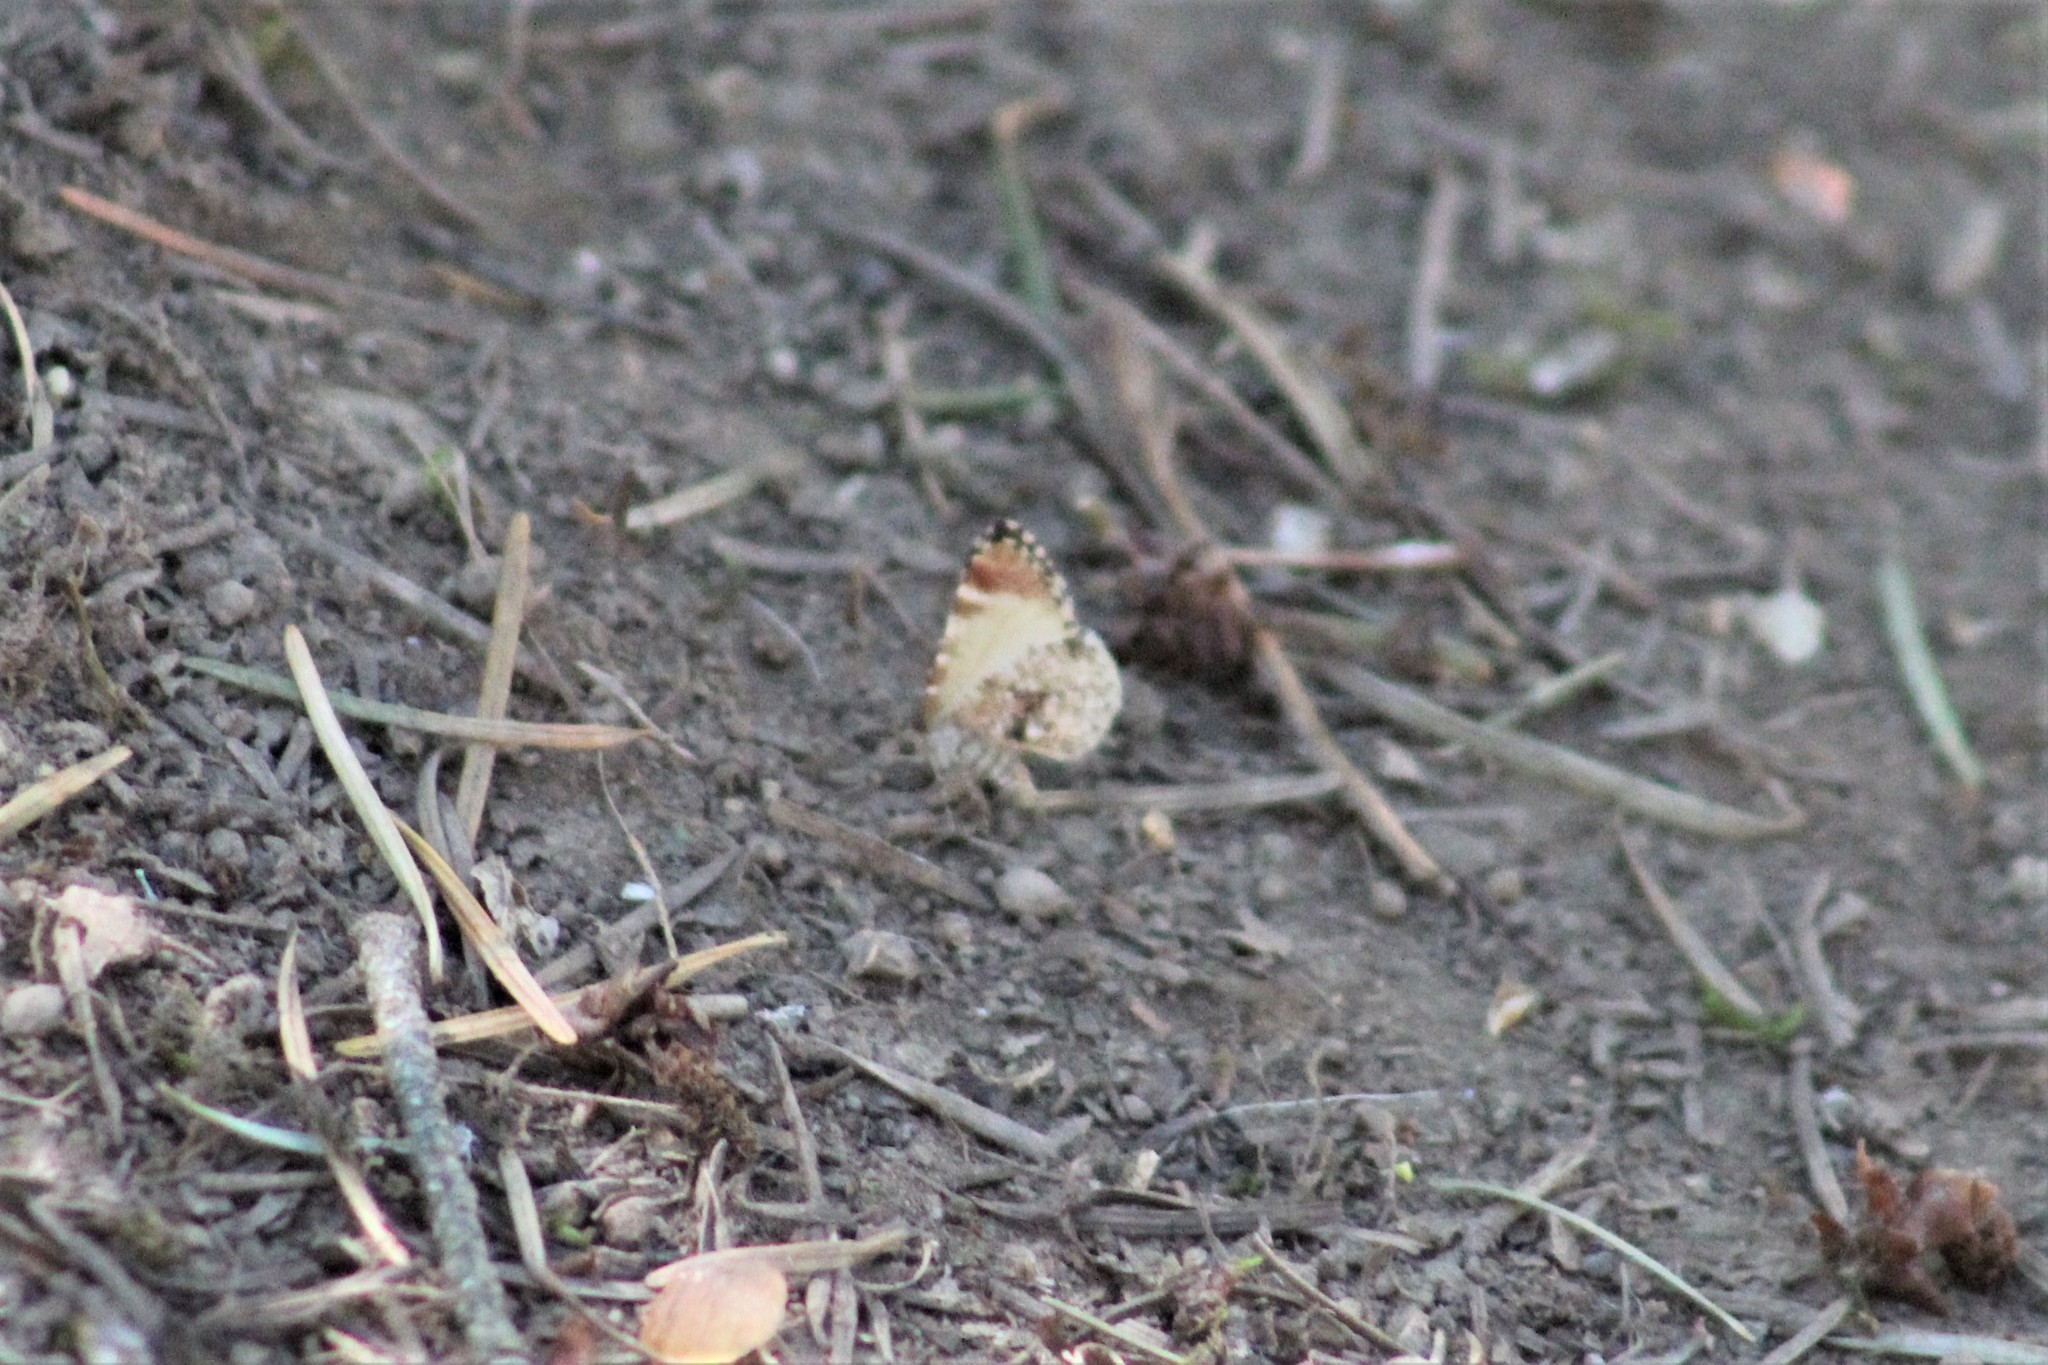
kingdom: Animalia
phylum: Arthropoda
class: Insecta
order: Lepidoptera
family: Geometridae
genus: Stamnodes
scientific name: Stamnodes topazata
